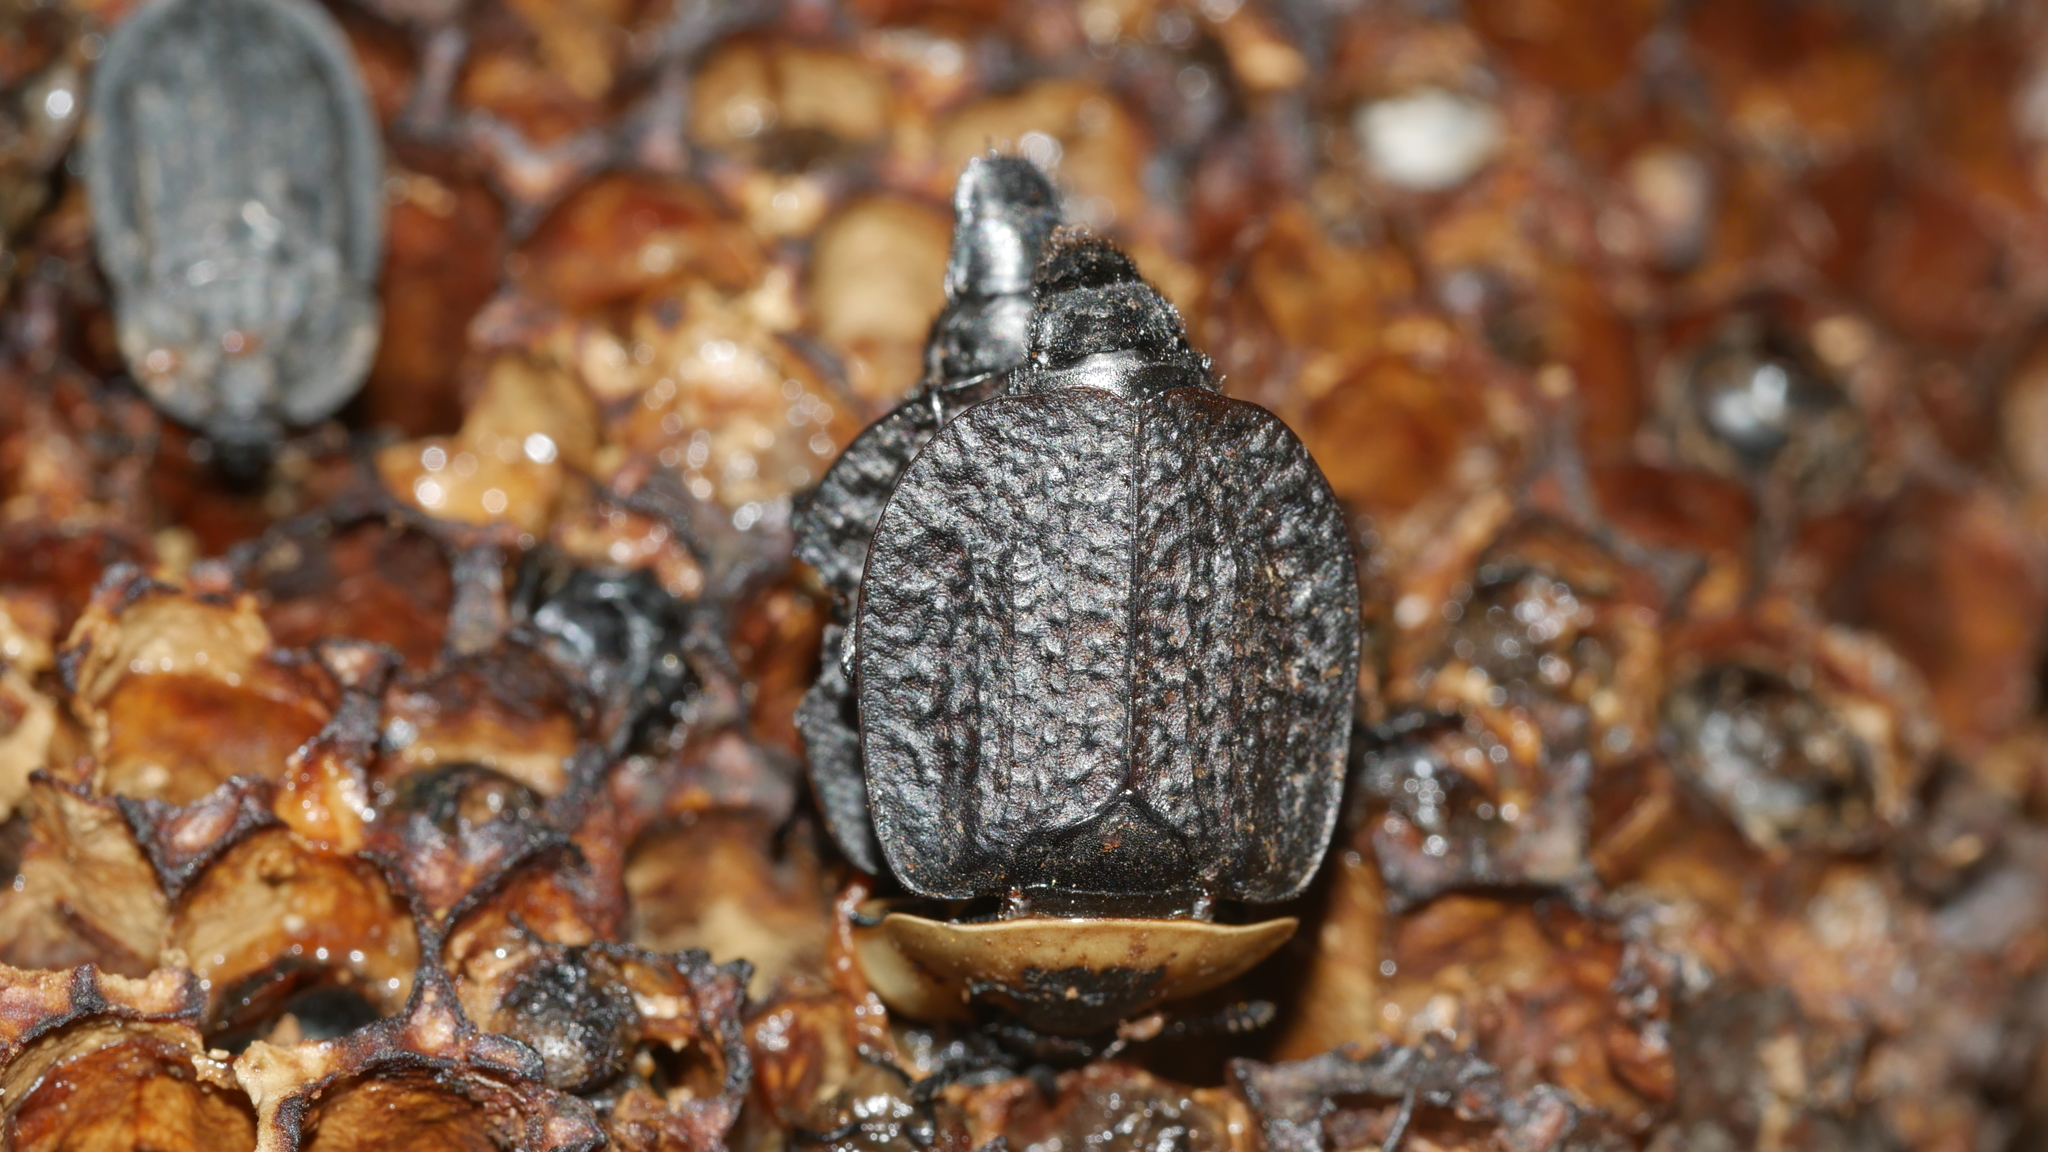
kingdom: Animalia
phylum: Arthropoda
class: Insecta
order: Coleoptera
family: Staphylinidae
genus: Necrophila
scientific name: Necrophila americana
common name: American carrion beetle
